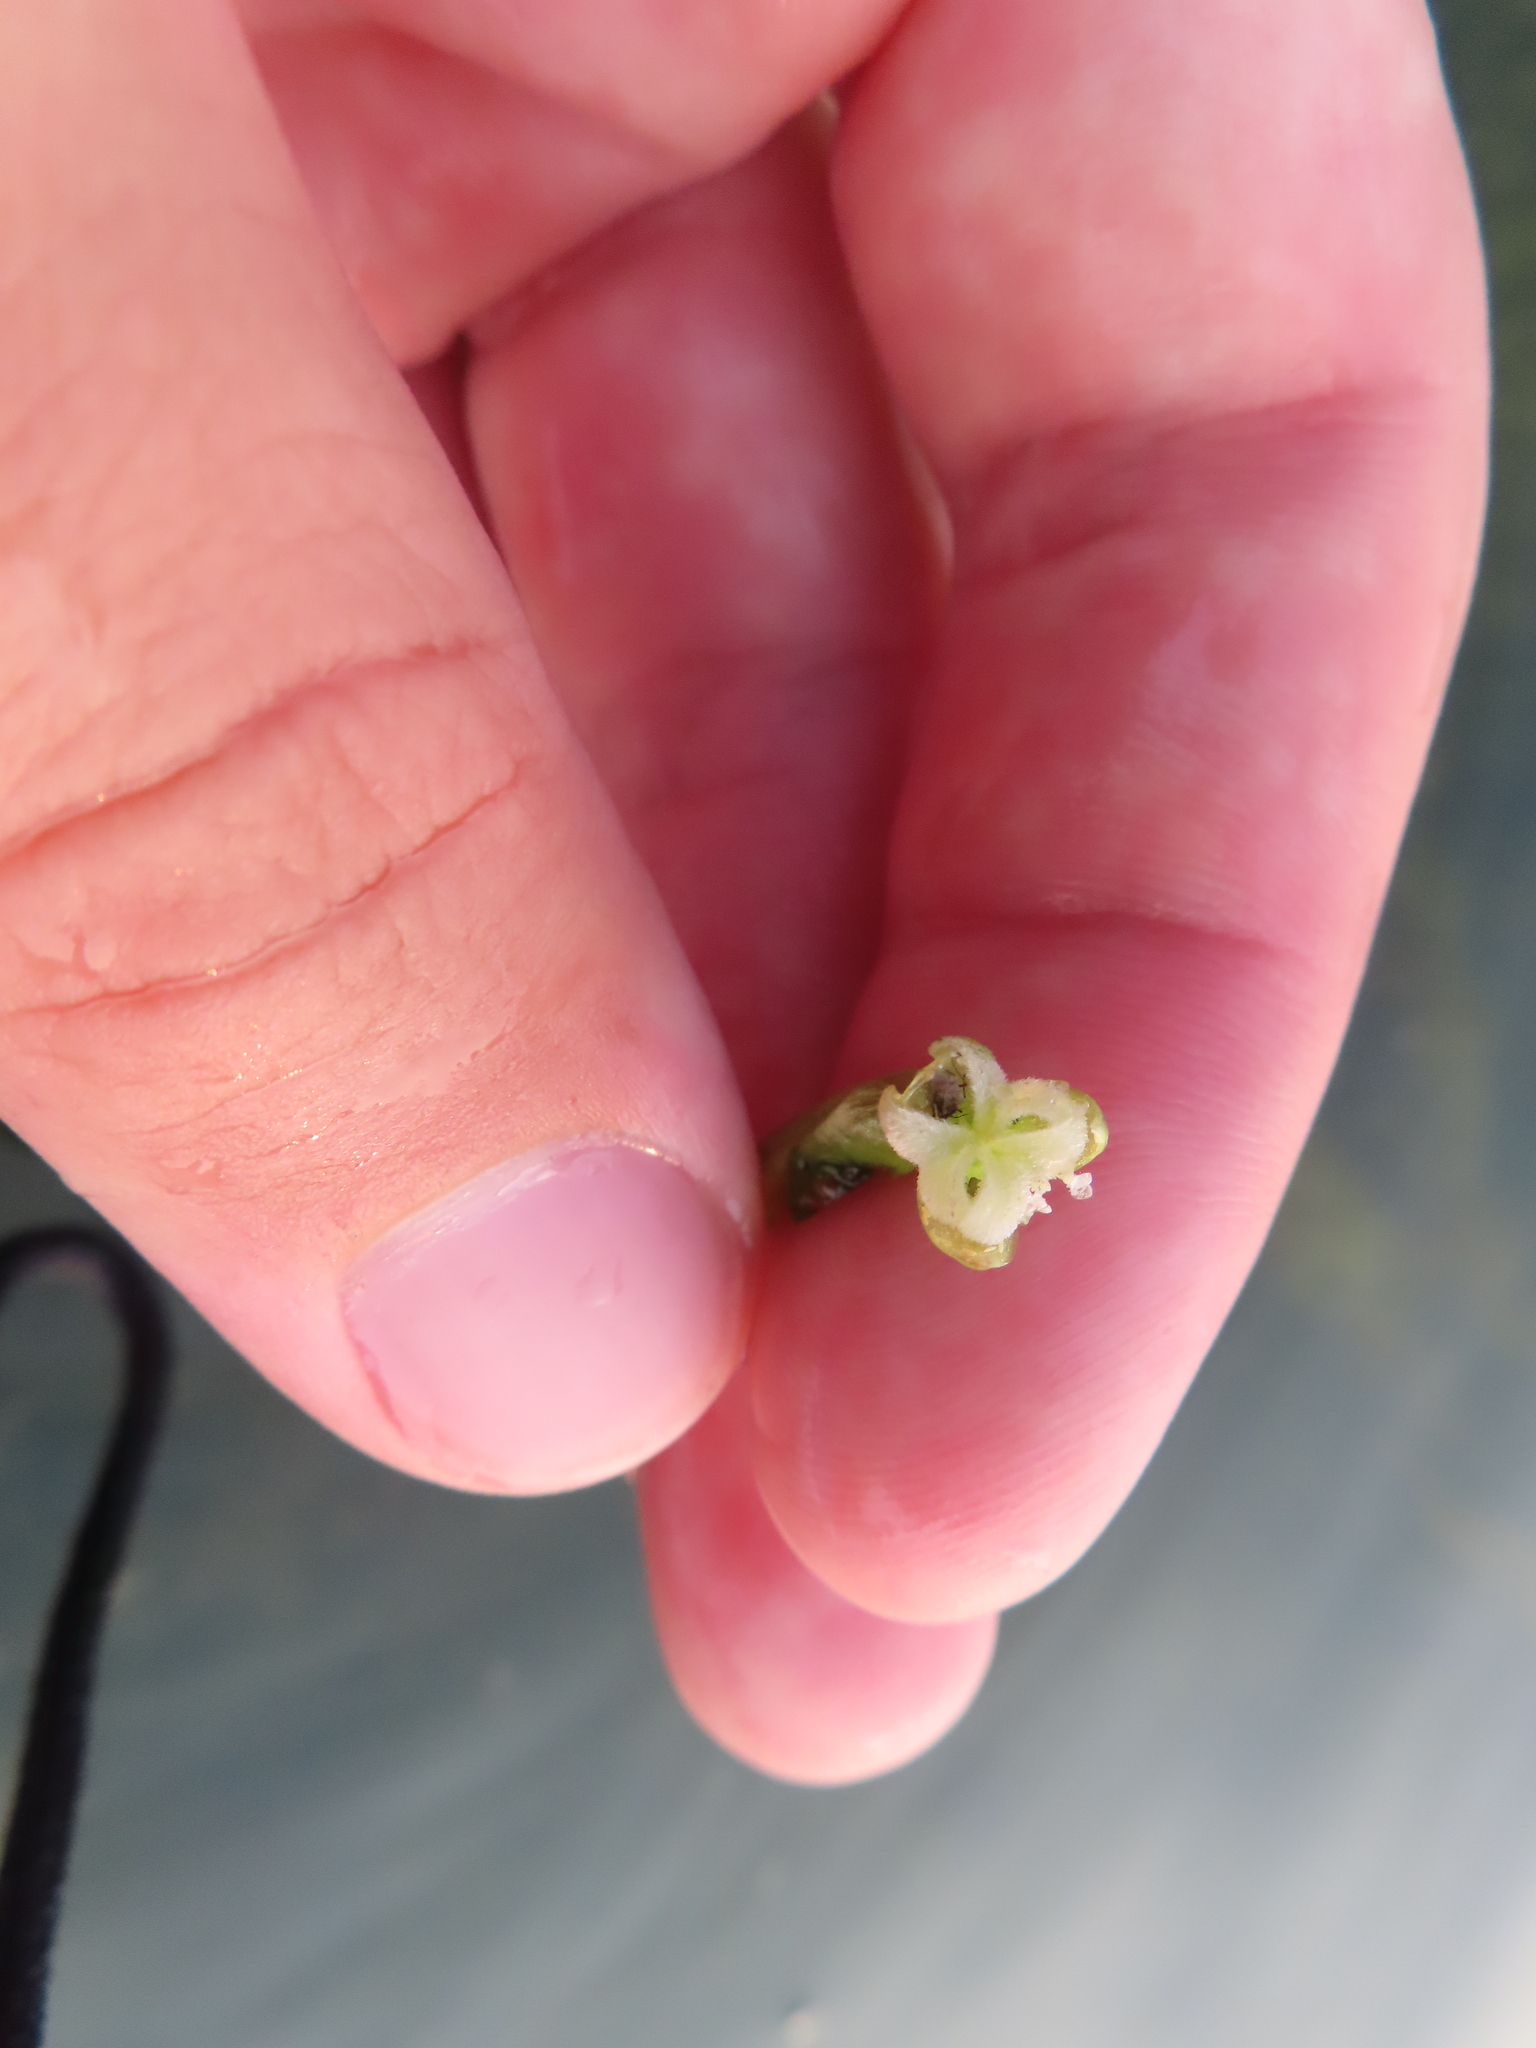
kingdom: Plantae
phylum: Tracheophyta
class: Liliopsida
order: Alismatales
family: Hydrocharitaceae
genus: Vallisneria
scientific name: Vallisneria americana
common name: American eelgrass
